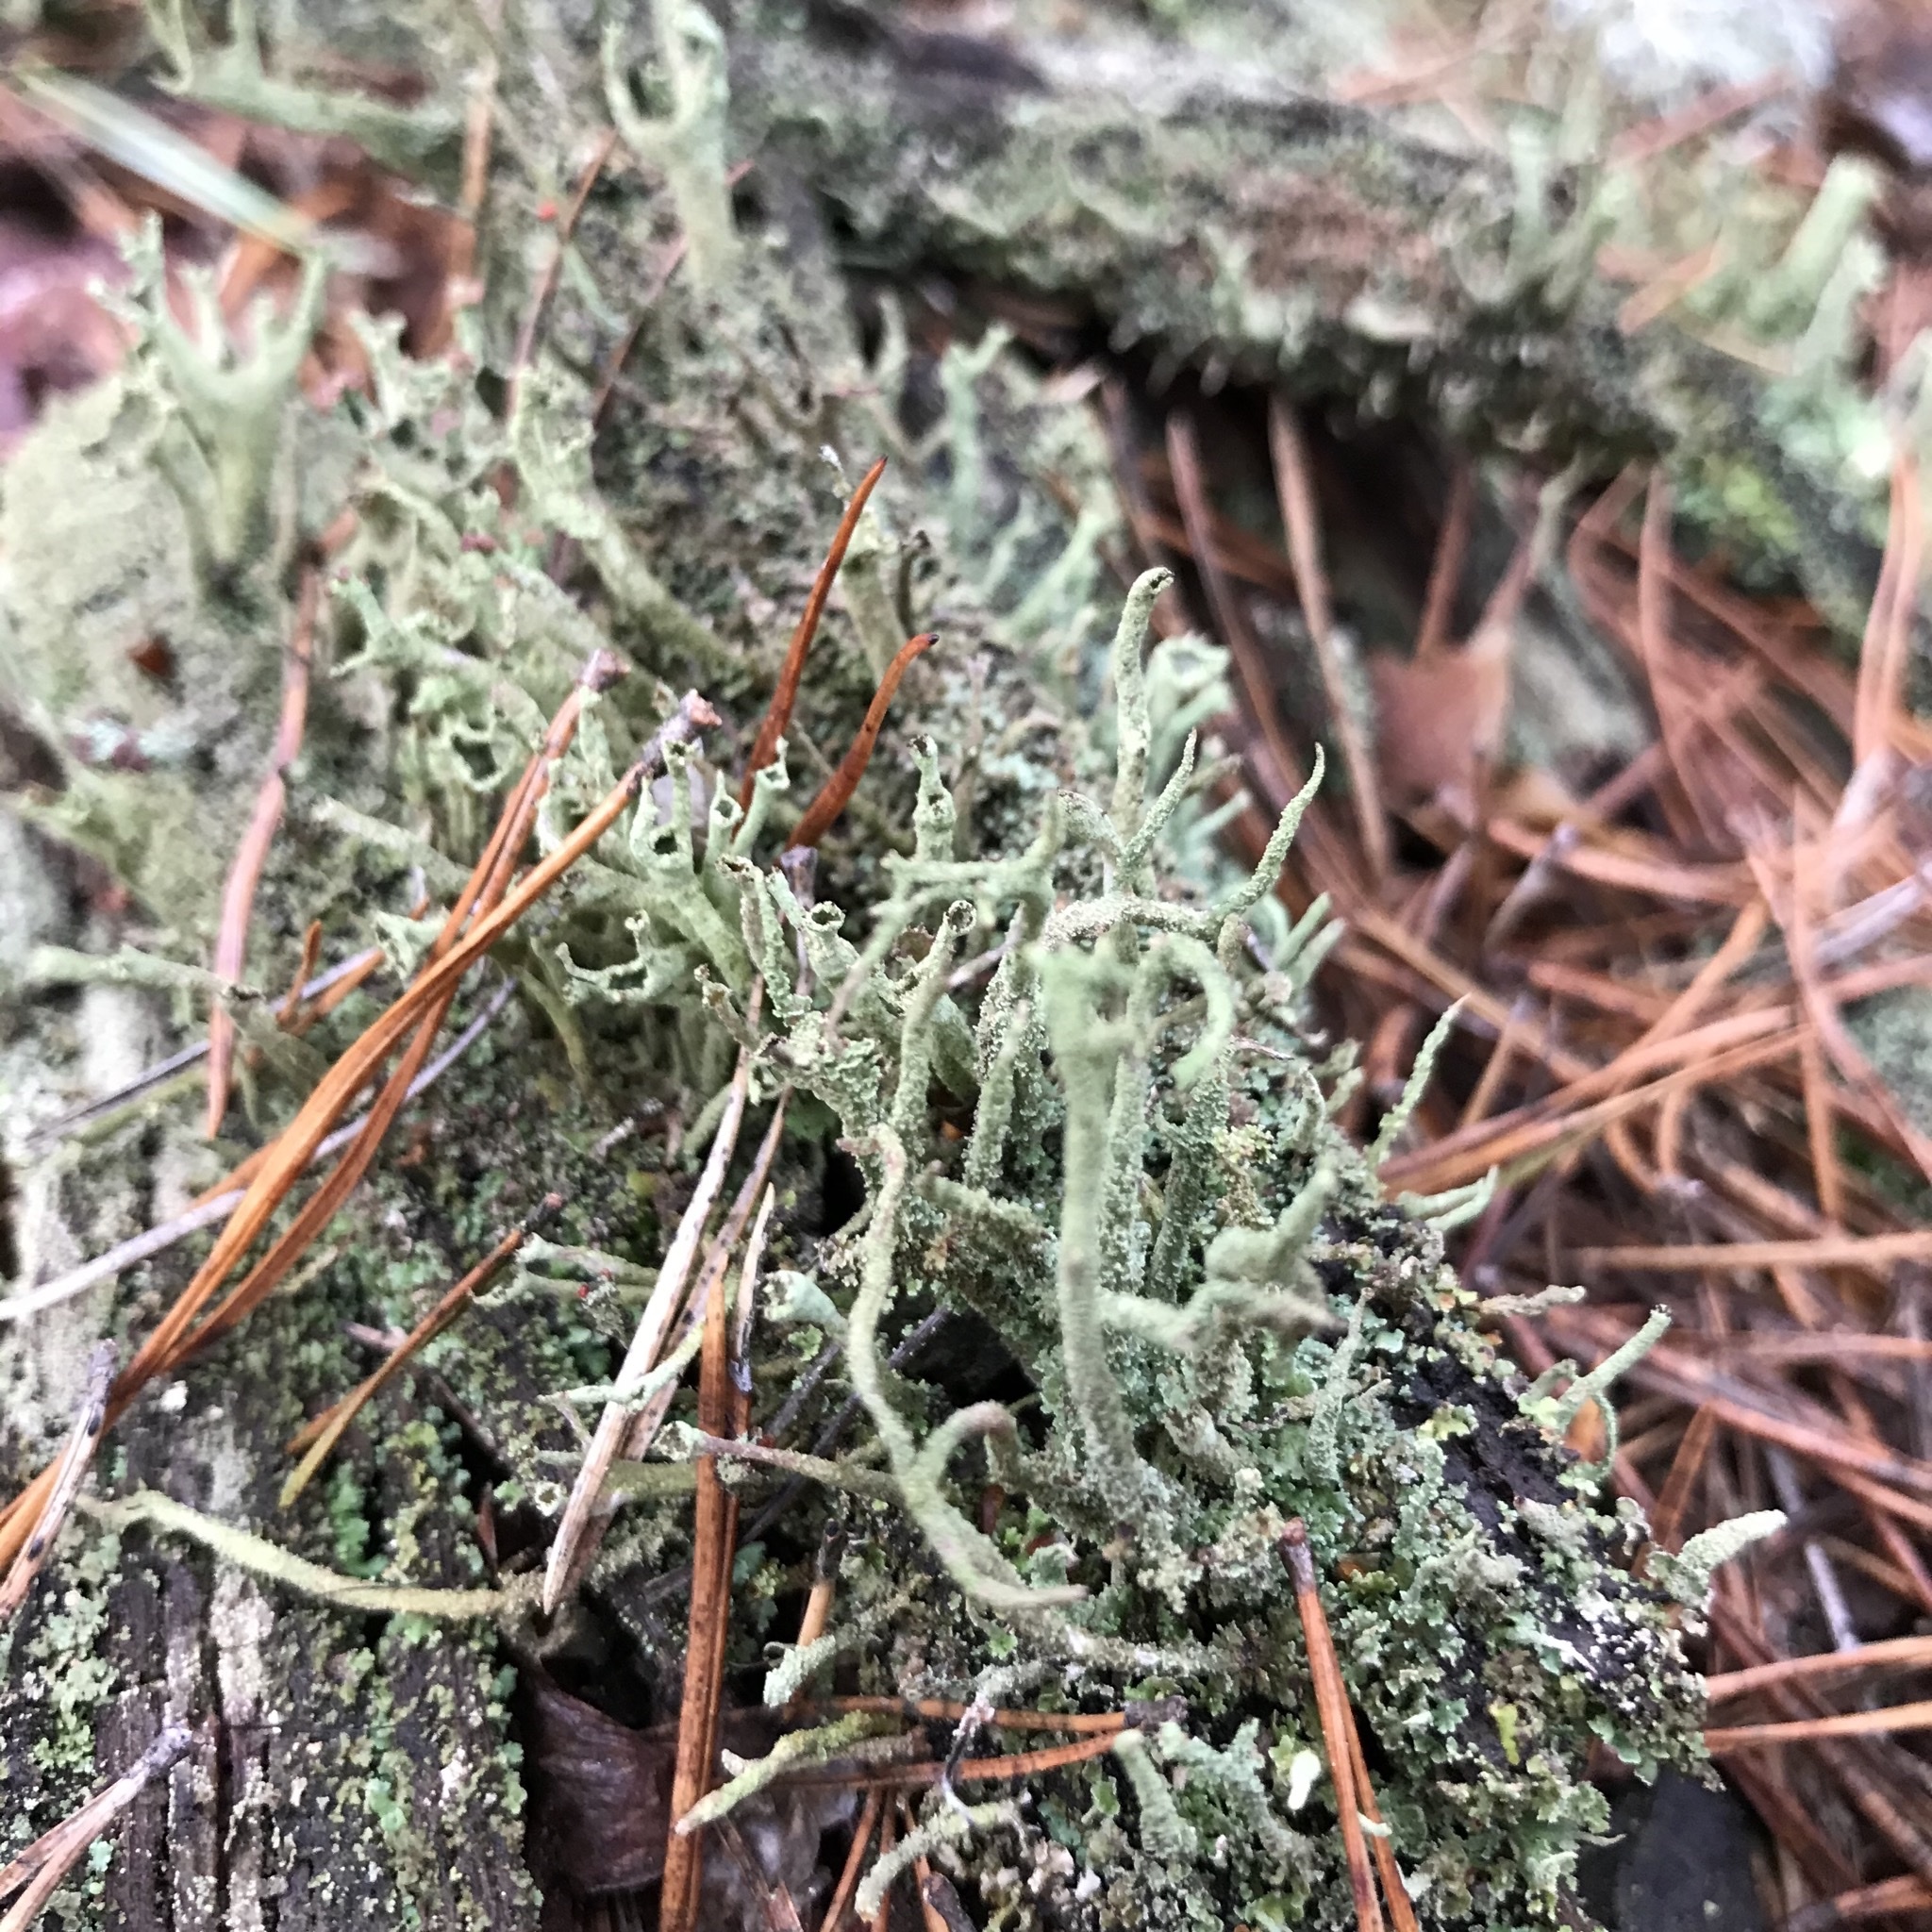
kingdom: Fungi
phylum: Ascomycota
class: Lecanoromycetes
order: Lecanorales
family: Cladoniaceae
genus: Cladonia
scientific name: Cladonia cenotea
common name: Powdered funnel lichen
